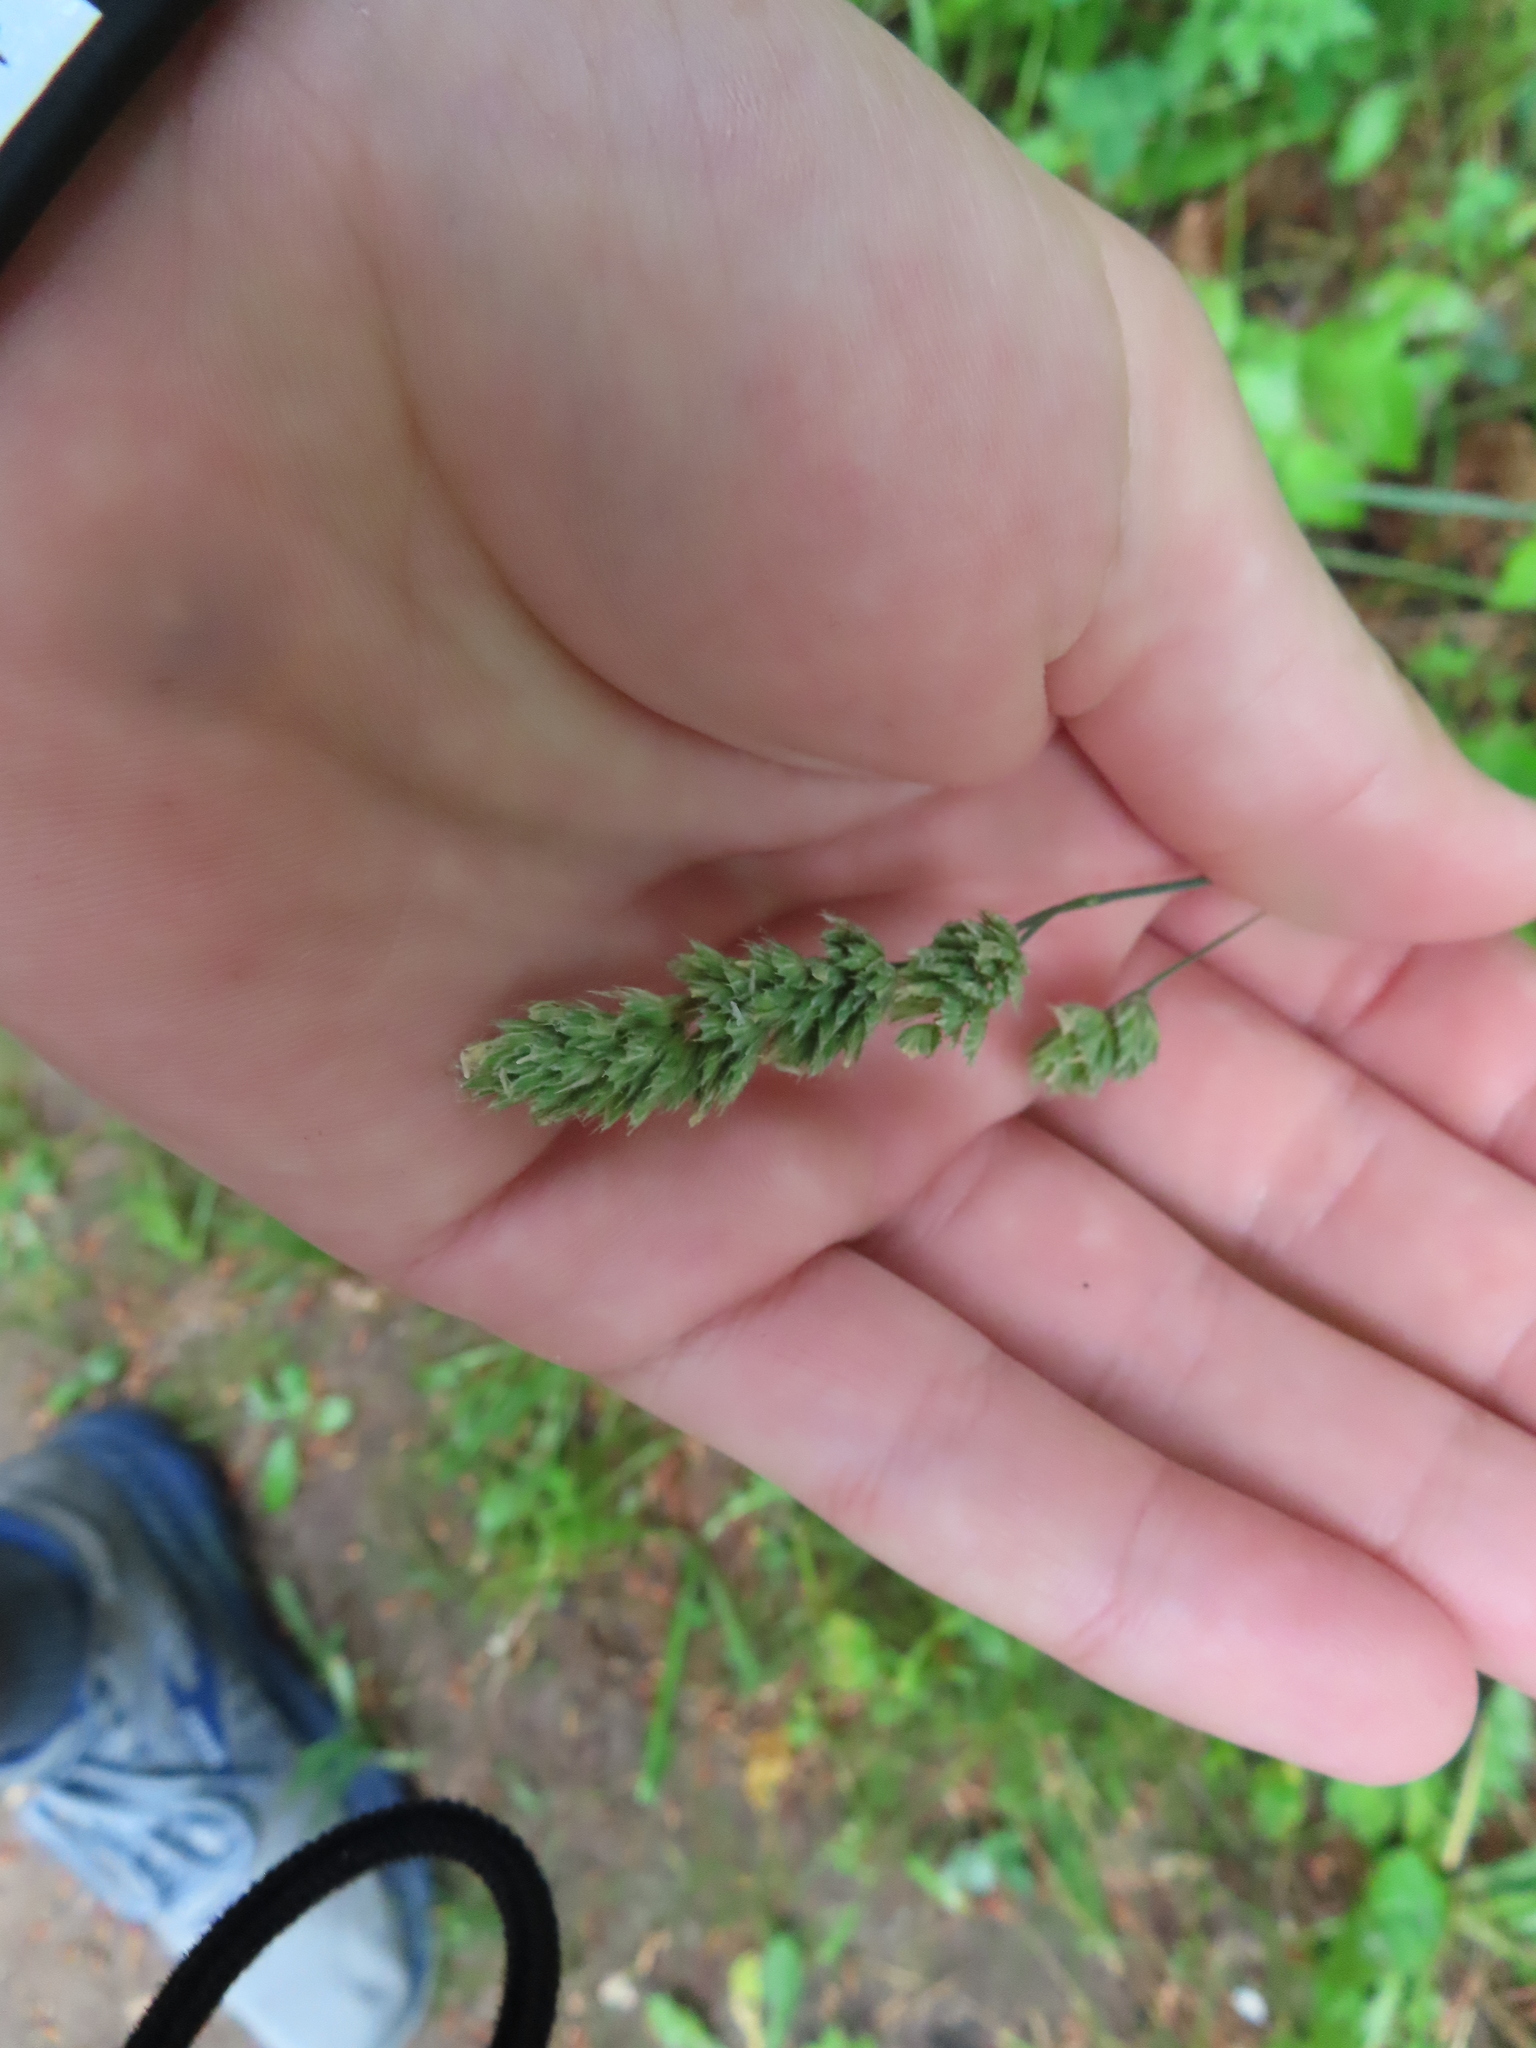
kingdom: Plantae
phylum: Tracheophyta
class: Liliopsida
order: Poales
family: Poaceae
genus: Dactylis
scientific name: Dactylis glomerata
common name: Orchardgrass
